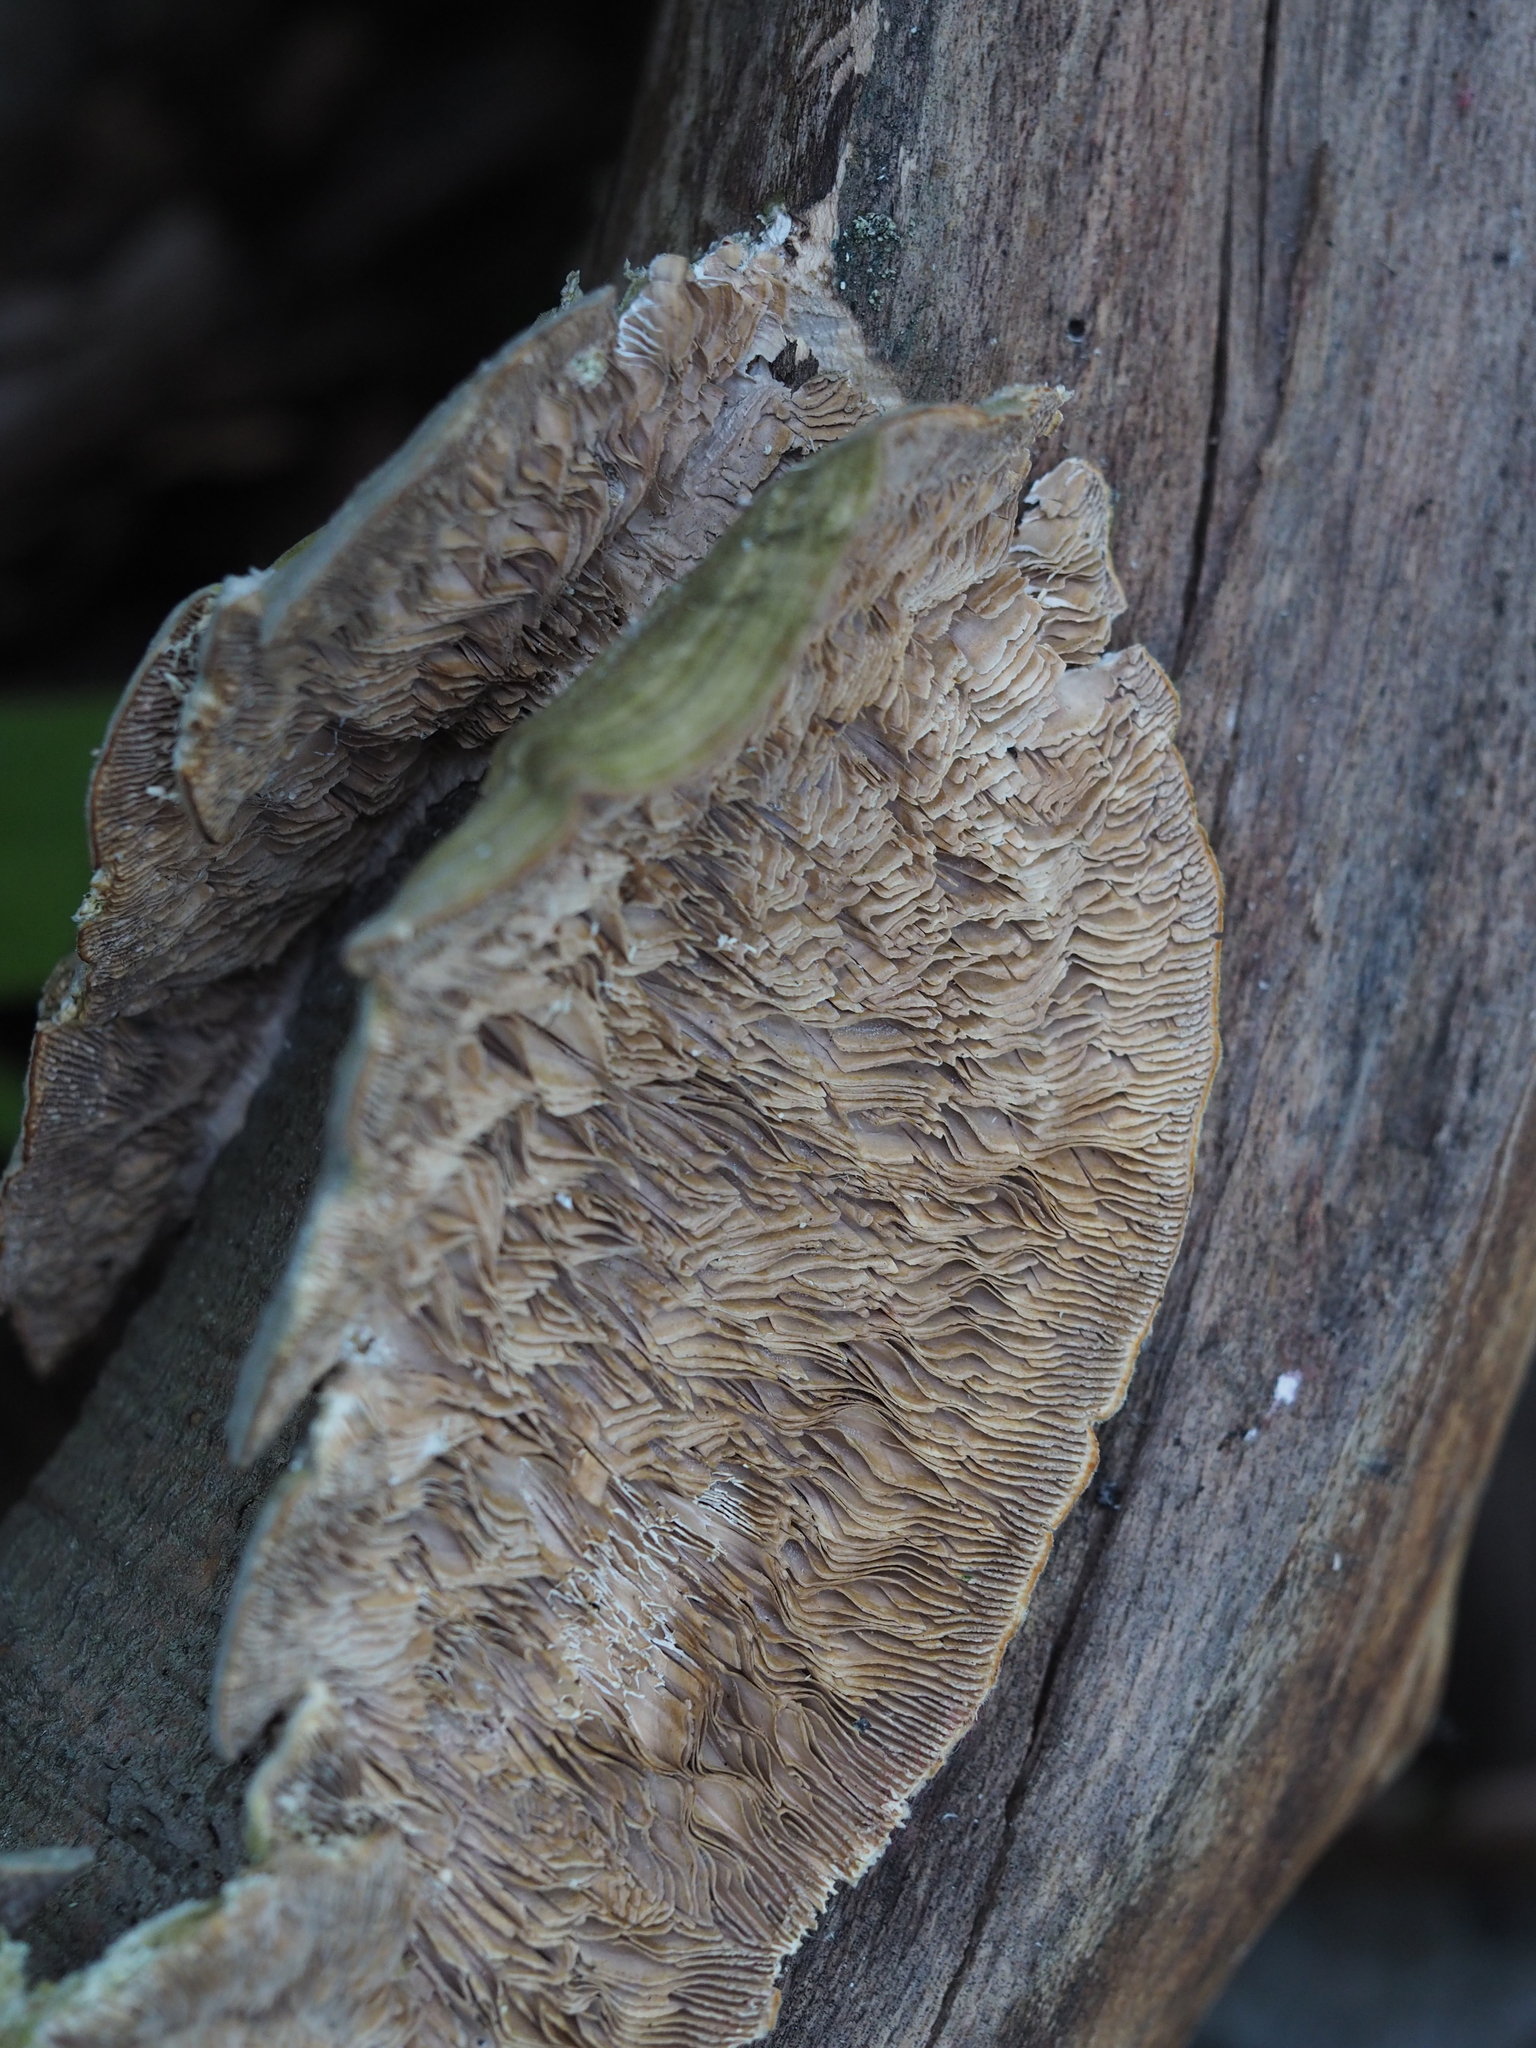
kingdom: Fungi
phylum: Basidiomycota
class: Agaricomycetes
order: Polyporales
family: Polyporaceae
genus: Lenzites
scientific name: Lenzites betulinus
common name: Birch mazegill
